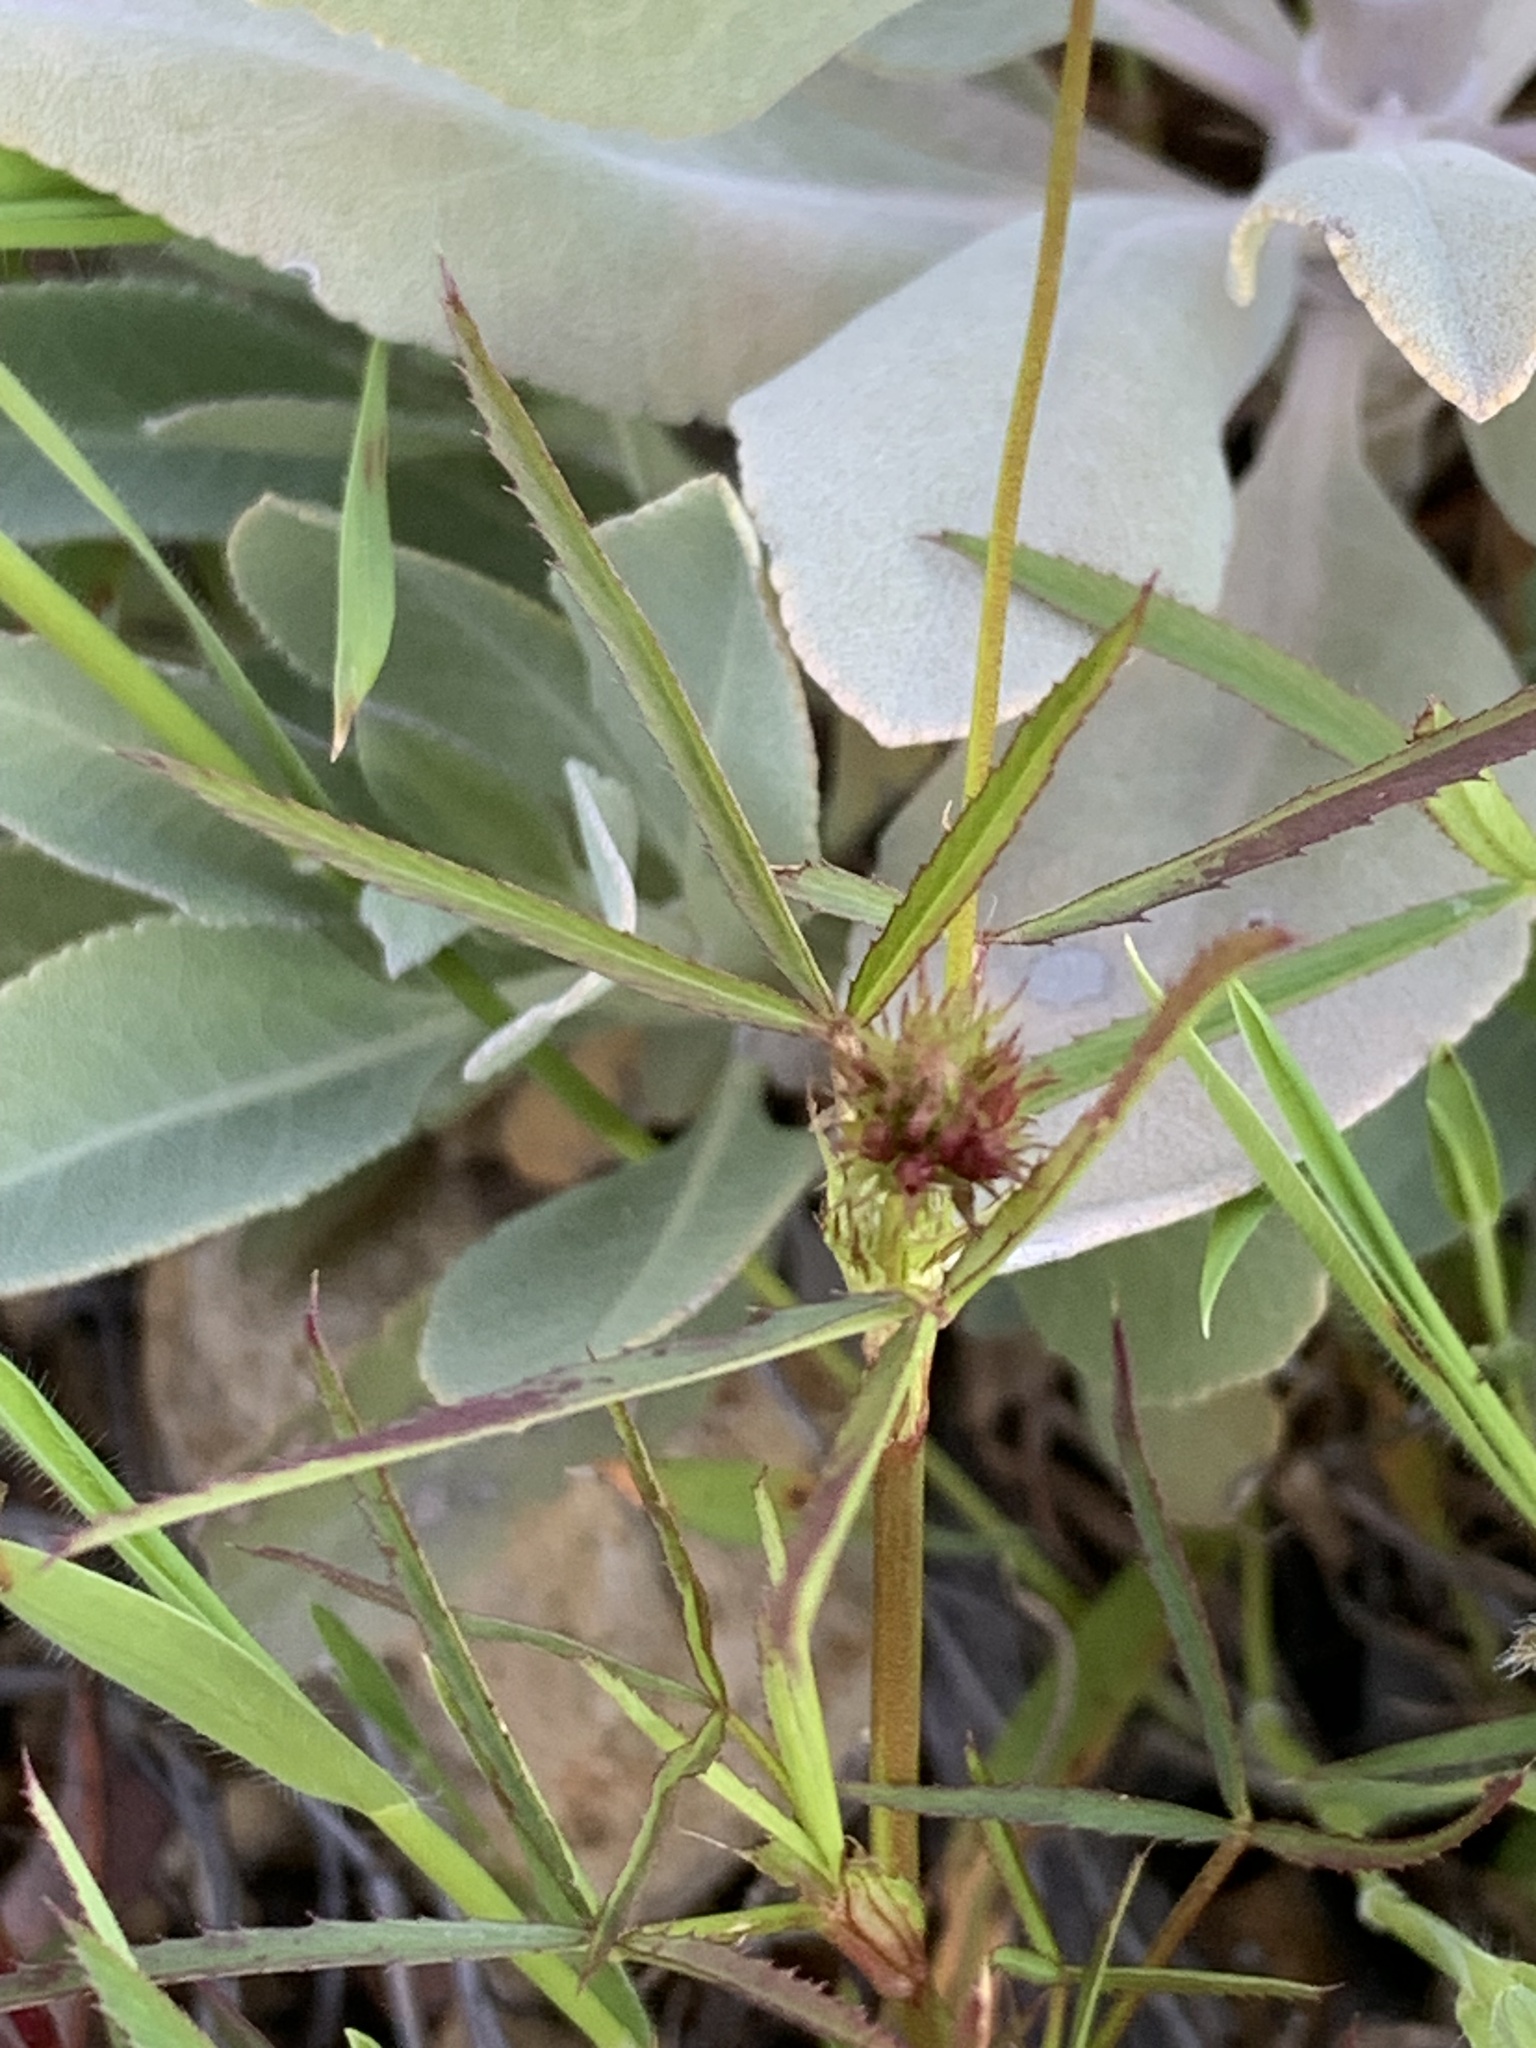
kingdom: Plantae
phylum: Tracheophyta
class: Magnoliopsida
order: Fabales
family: Fabaceae
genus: Trifolium
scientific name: Trifolium willdenovii
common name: Tomcat clover
